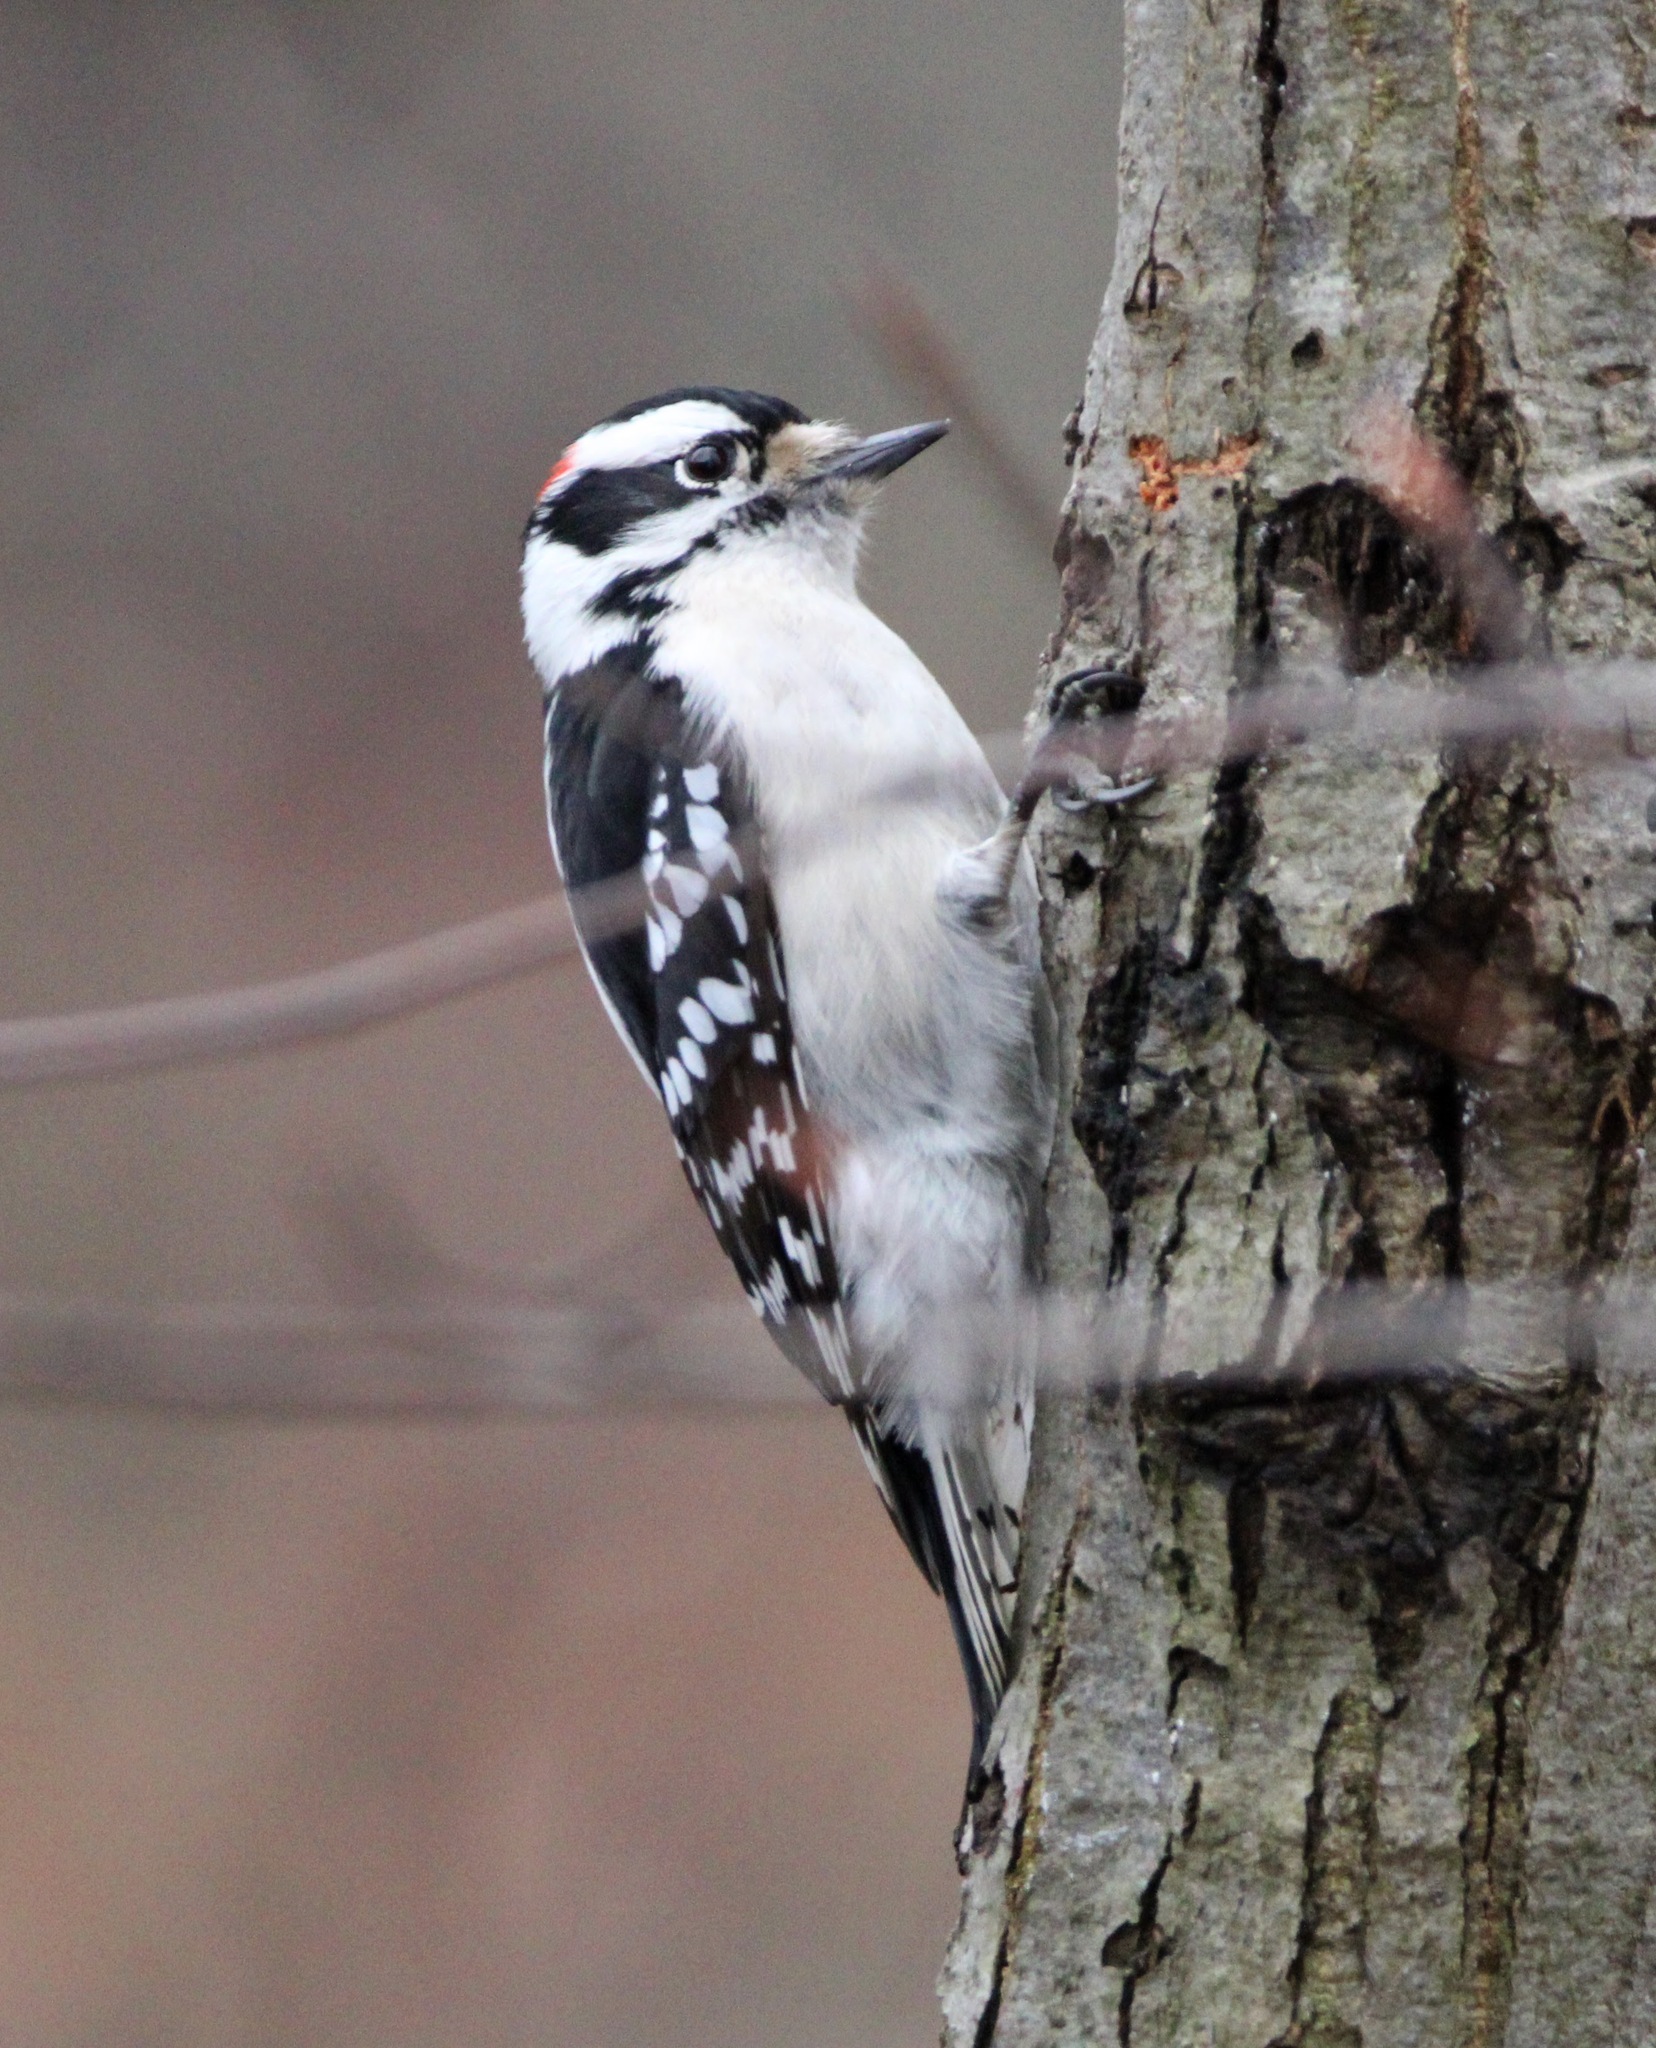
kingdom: Animalia
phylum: Chordata
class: Aves
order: Piciformes
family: Picidae
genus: Dryobates
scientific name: Dryobates pubescens
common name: Downy woodpecker
